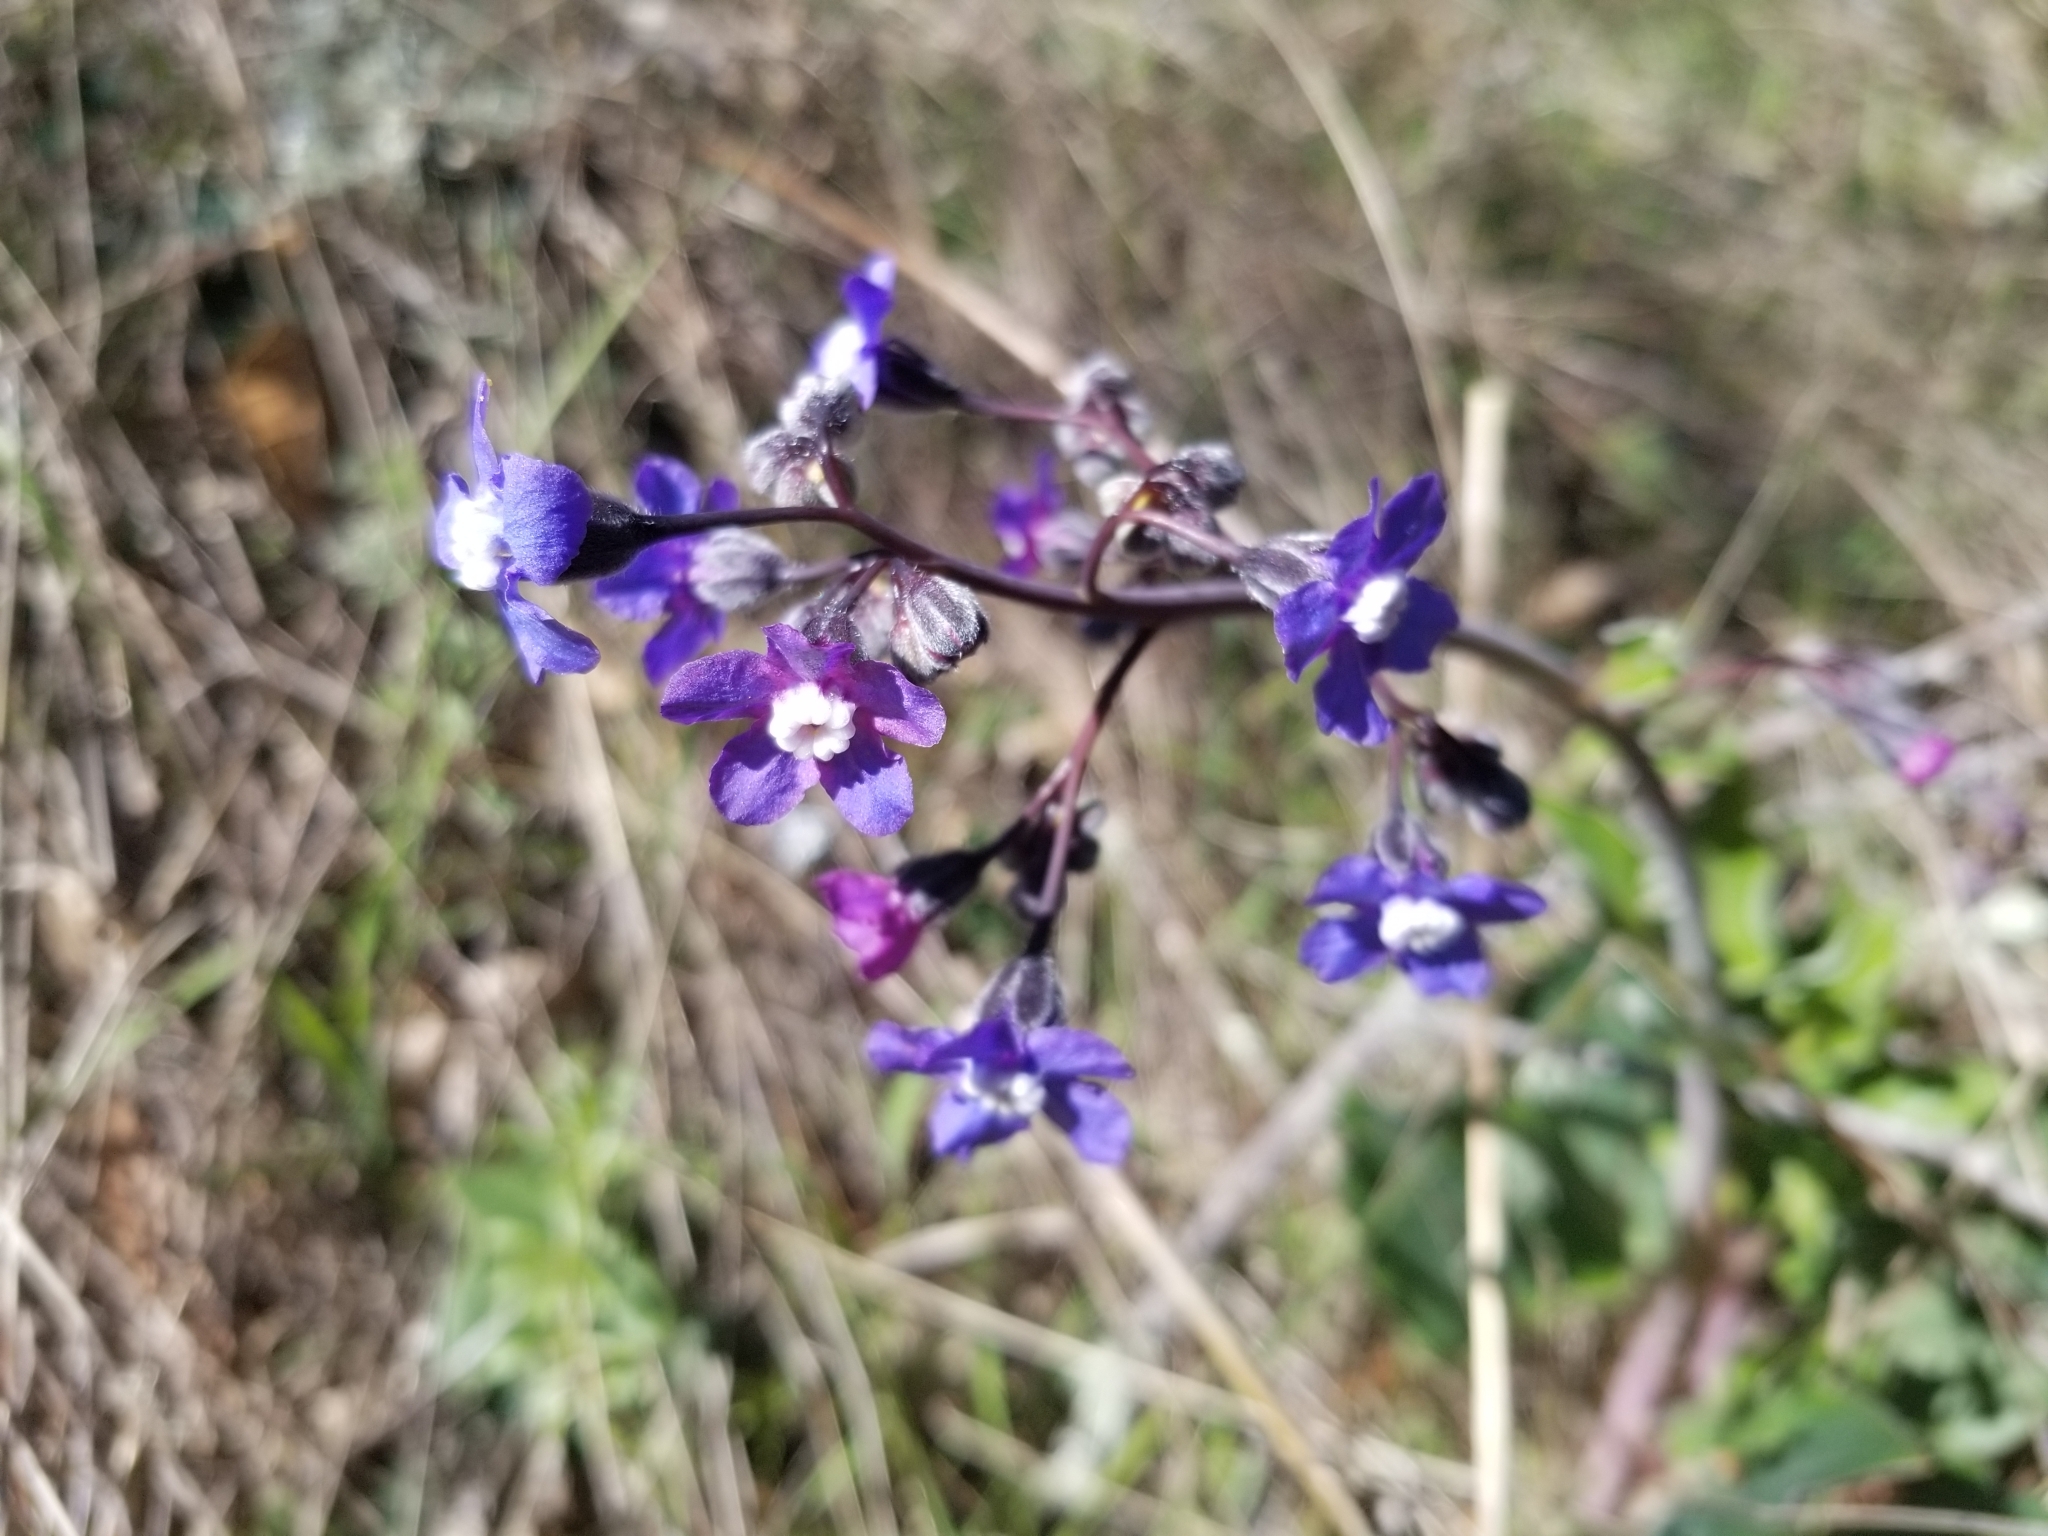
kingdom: Plantae
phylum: Tracheophyta
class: Magnoliopsida
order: Boraginales
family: Boraginaceae
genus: Adelinia
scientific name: Adelinia grande
